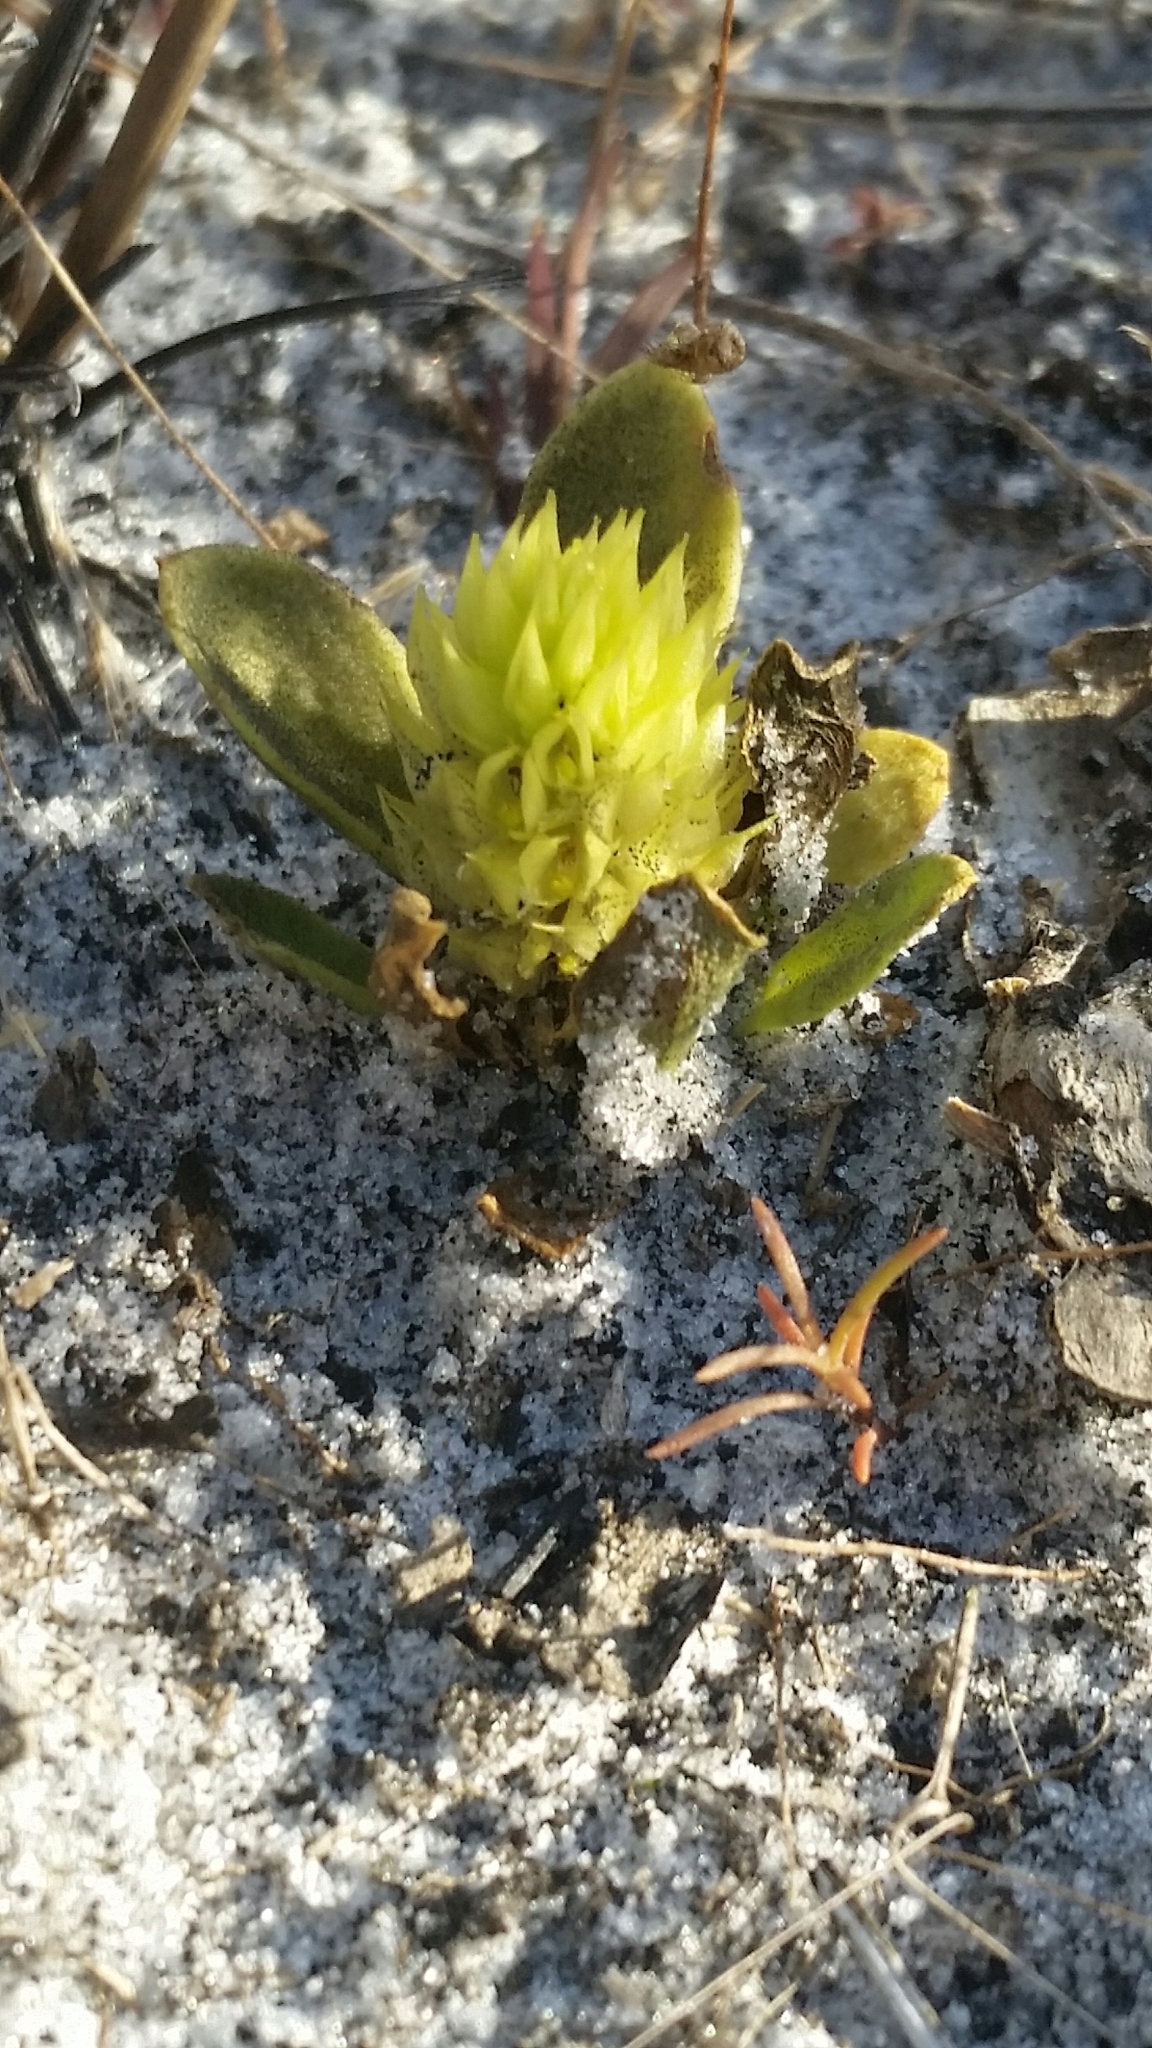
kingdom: Plantae
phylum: Tracheophyta
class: Magnoliopsida
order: Fabales
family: Polygalaceae
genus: Polygala
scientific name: Polygala nana
